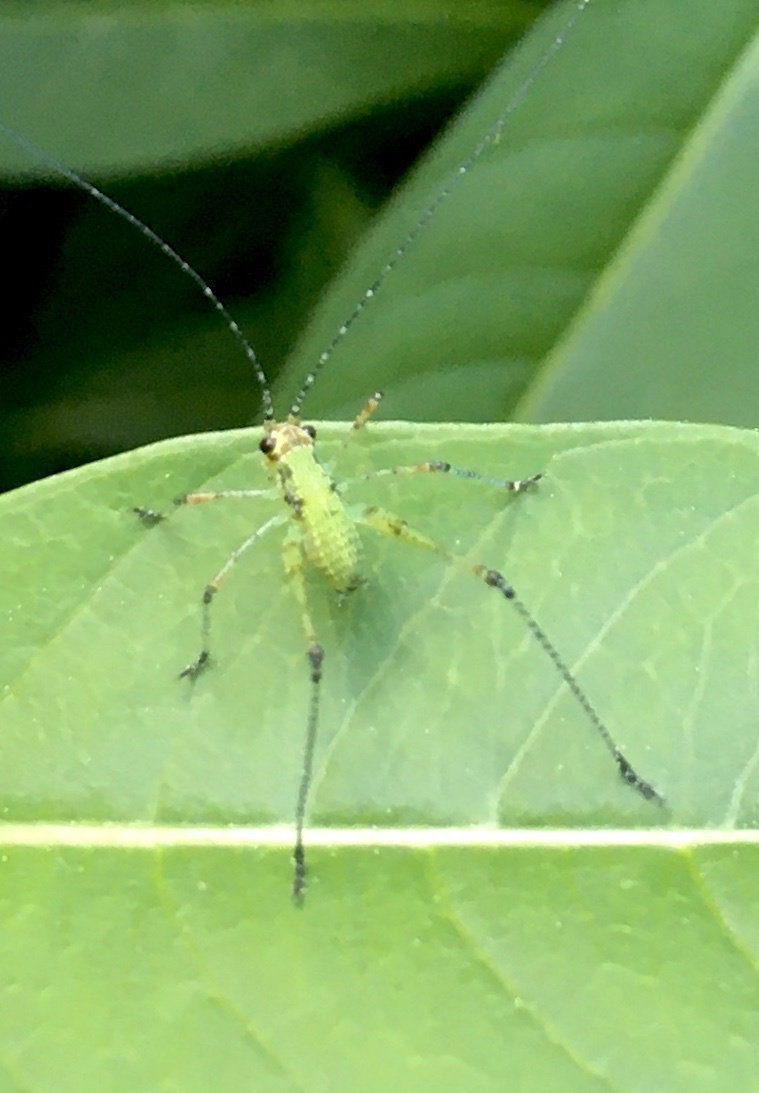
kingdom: Animalia
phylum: Arthropoda
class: Insecta
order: Orthoptera
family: Tettigoniidae
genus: Phaneroptera
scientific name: Phaneroptera nana
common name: Southern sickle bush-cricket
